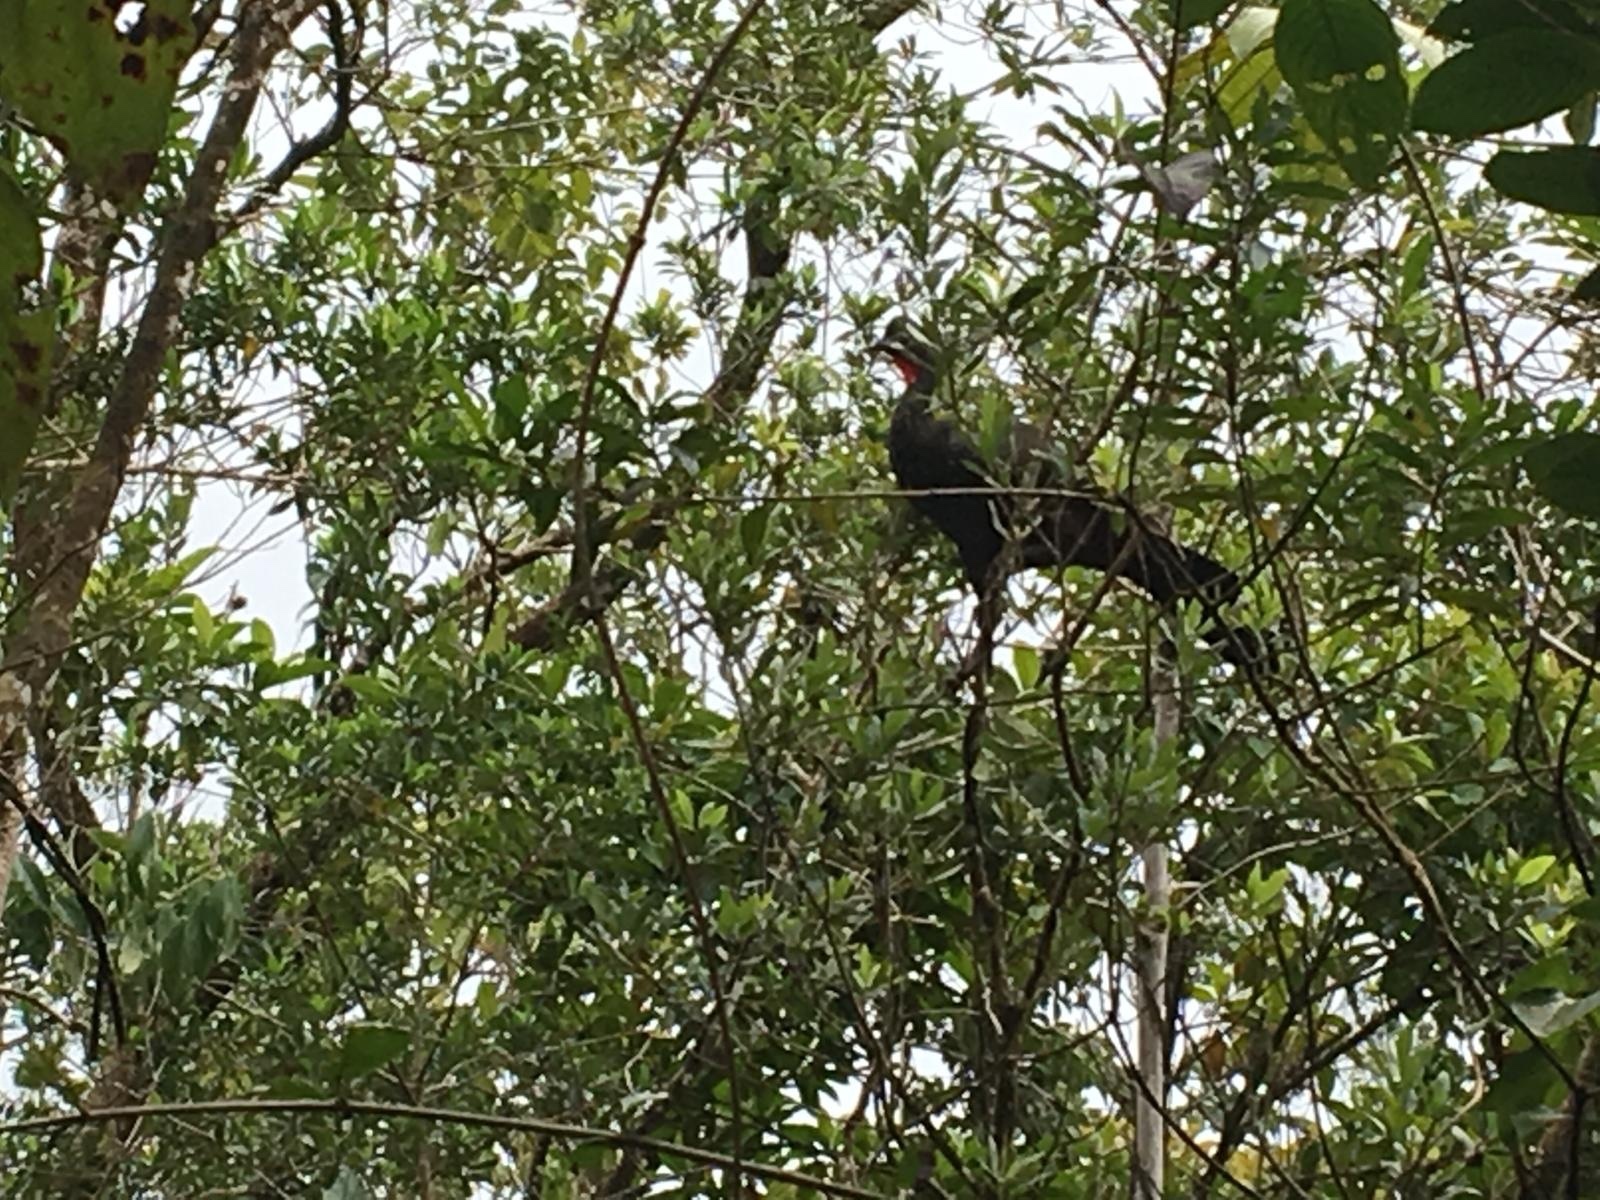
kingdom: Animalia
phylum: Chordata
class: Aves
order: Galliformes
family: Cracidae
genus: Penelope
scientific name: Penelope purpurascens
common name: Crested guan
